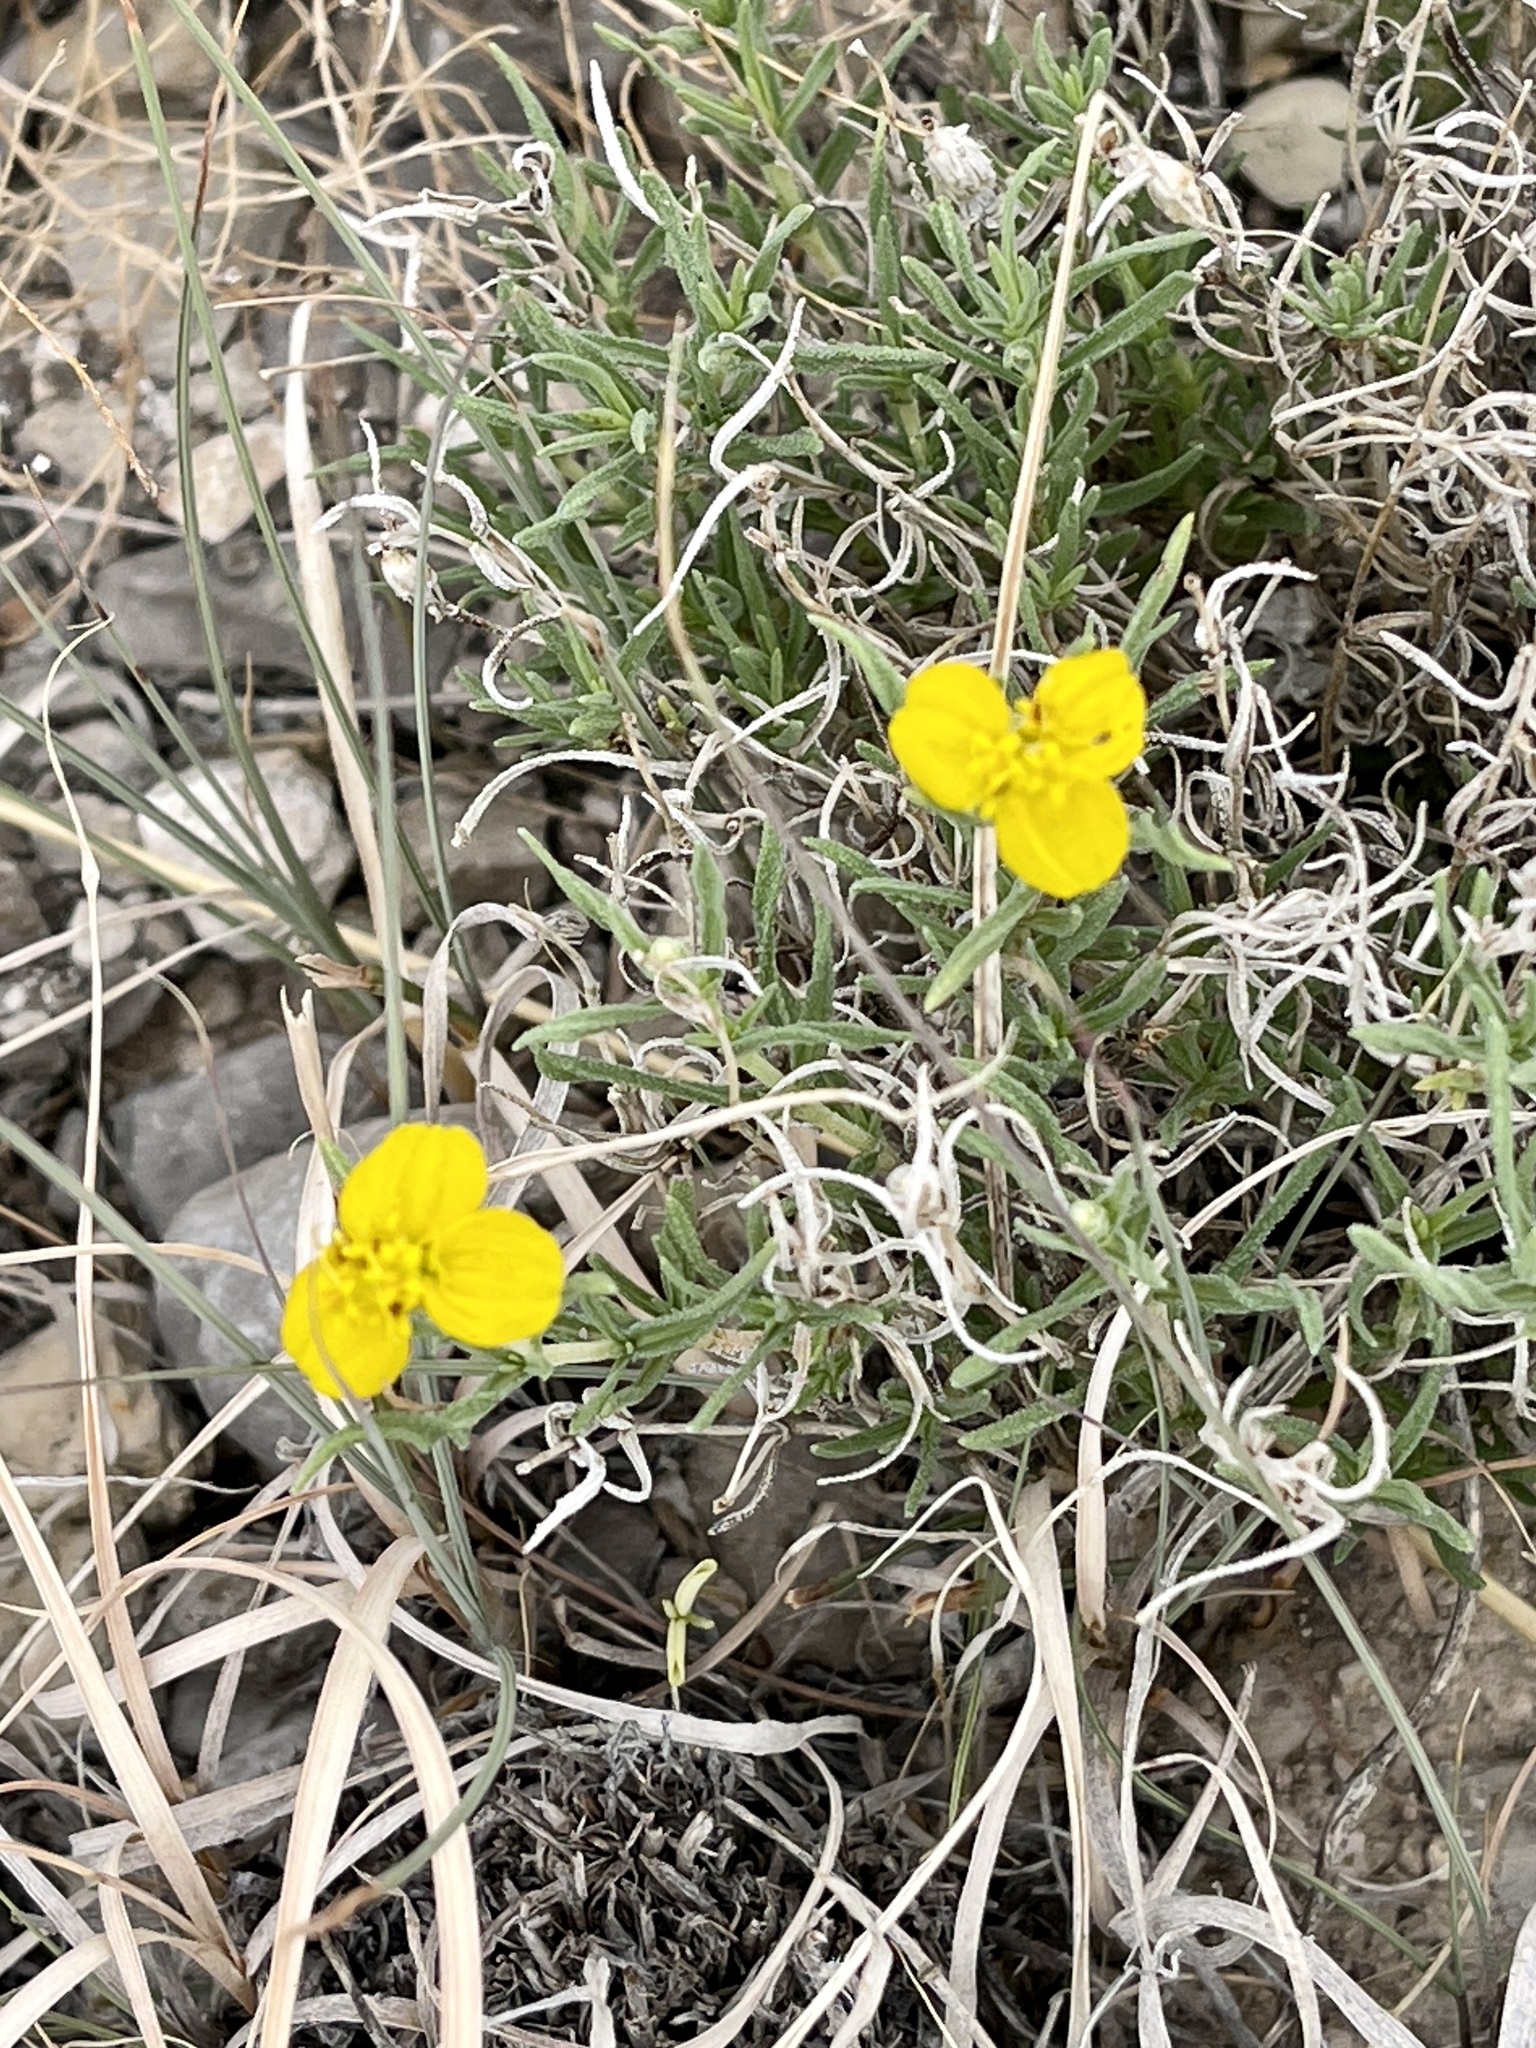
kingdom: Plantae
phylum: Tracheophyta
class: Magnoliopsida
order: Asterales
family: Asteraceae
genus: Zinnia
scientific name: Zinnia grandiflora
